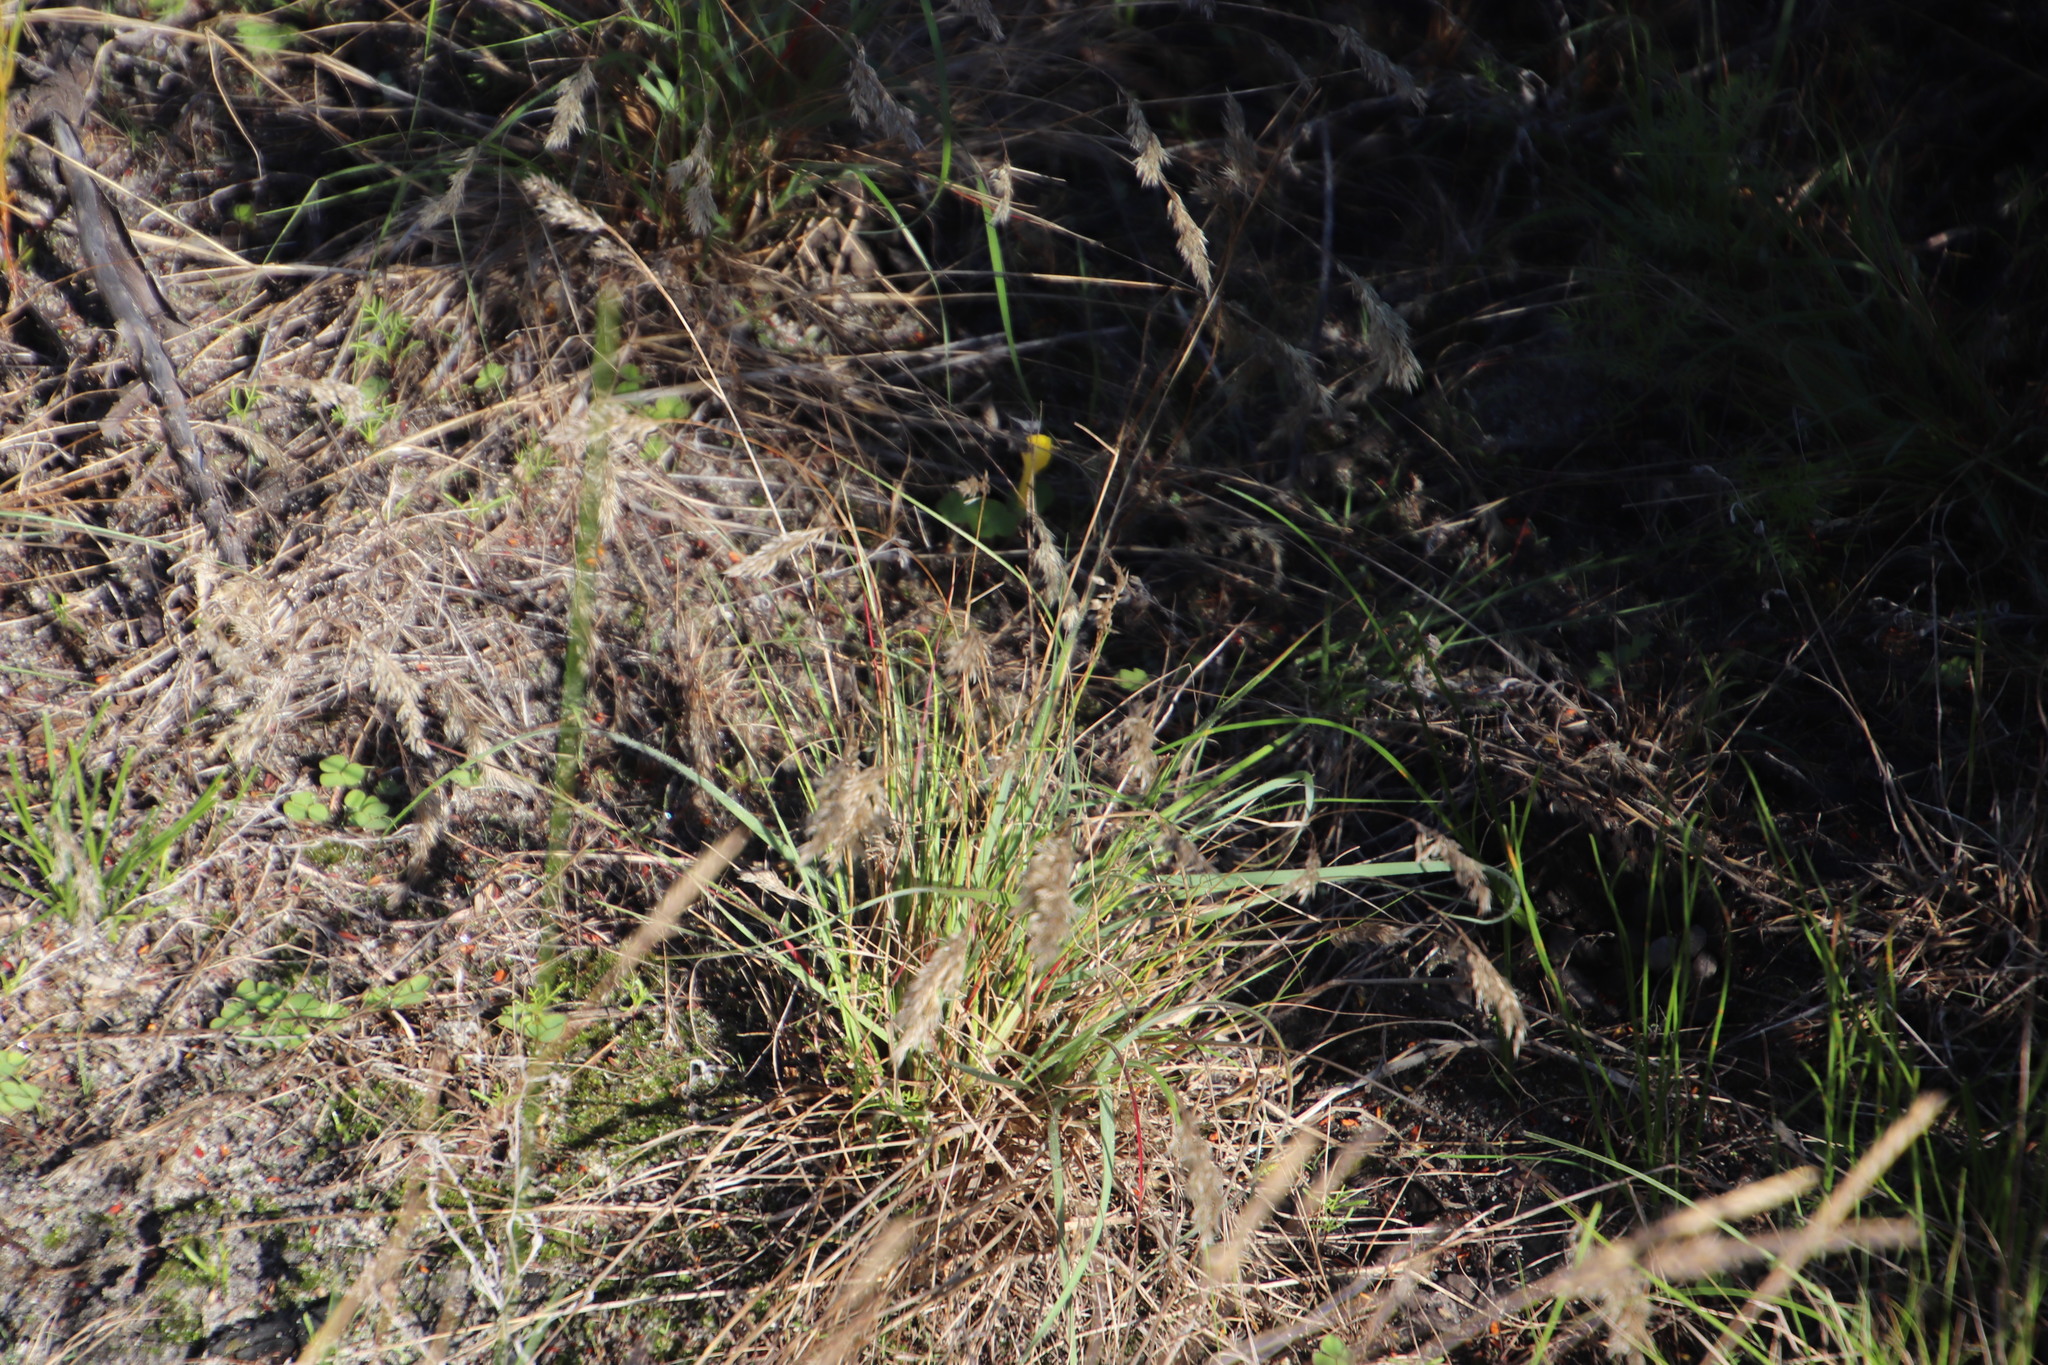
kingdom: Plantae
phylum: Tracheophyta
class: Liliopsida
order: Poales
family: Poaceae
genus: Pentameris
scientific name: Pentameris pallida
